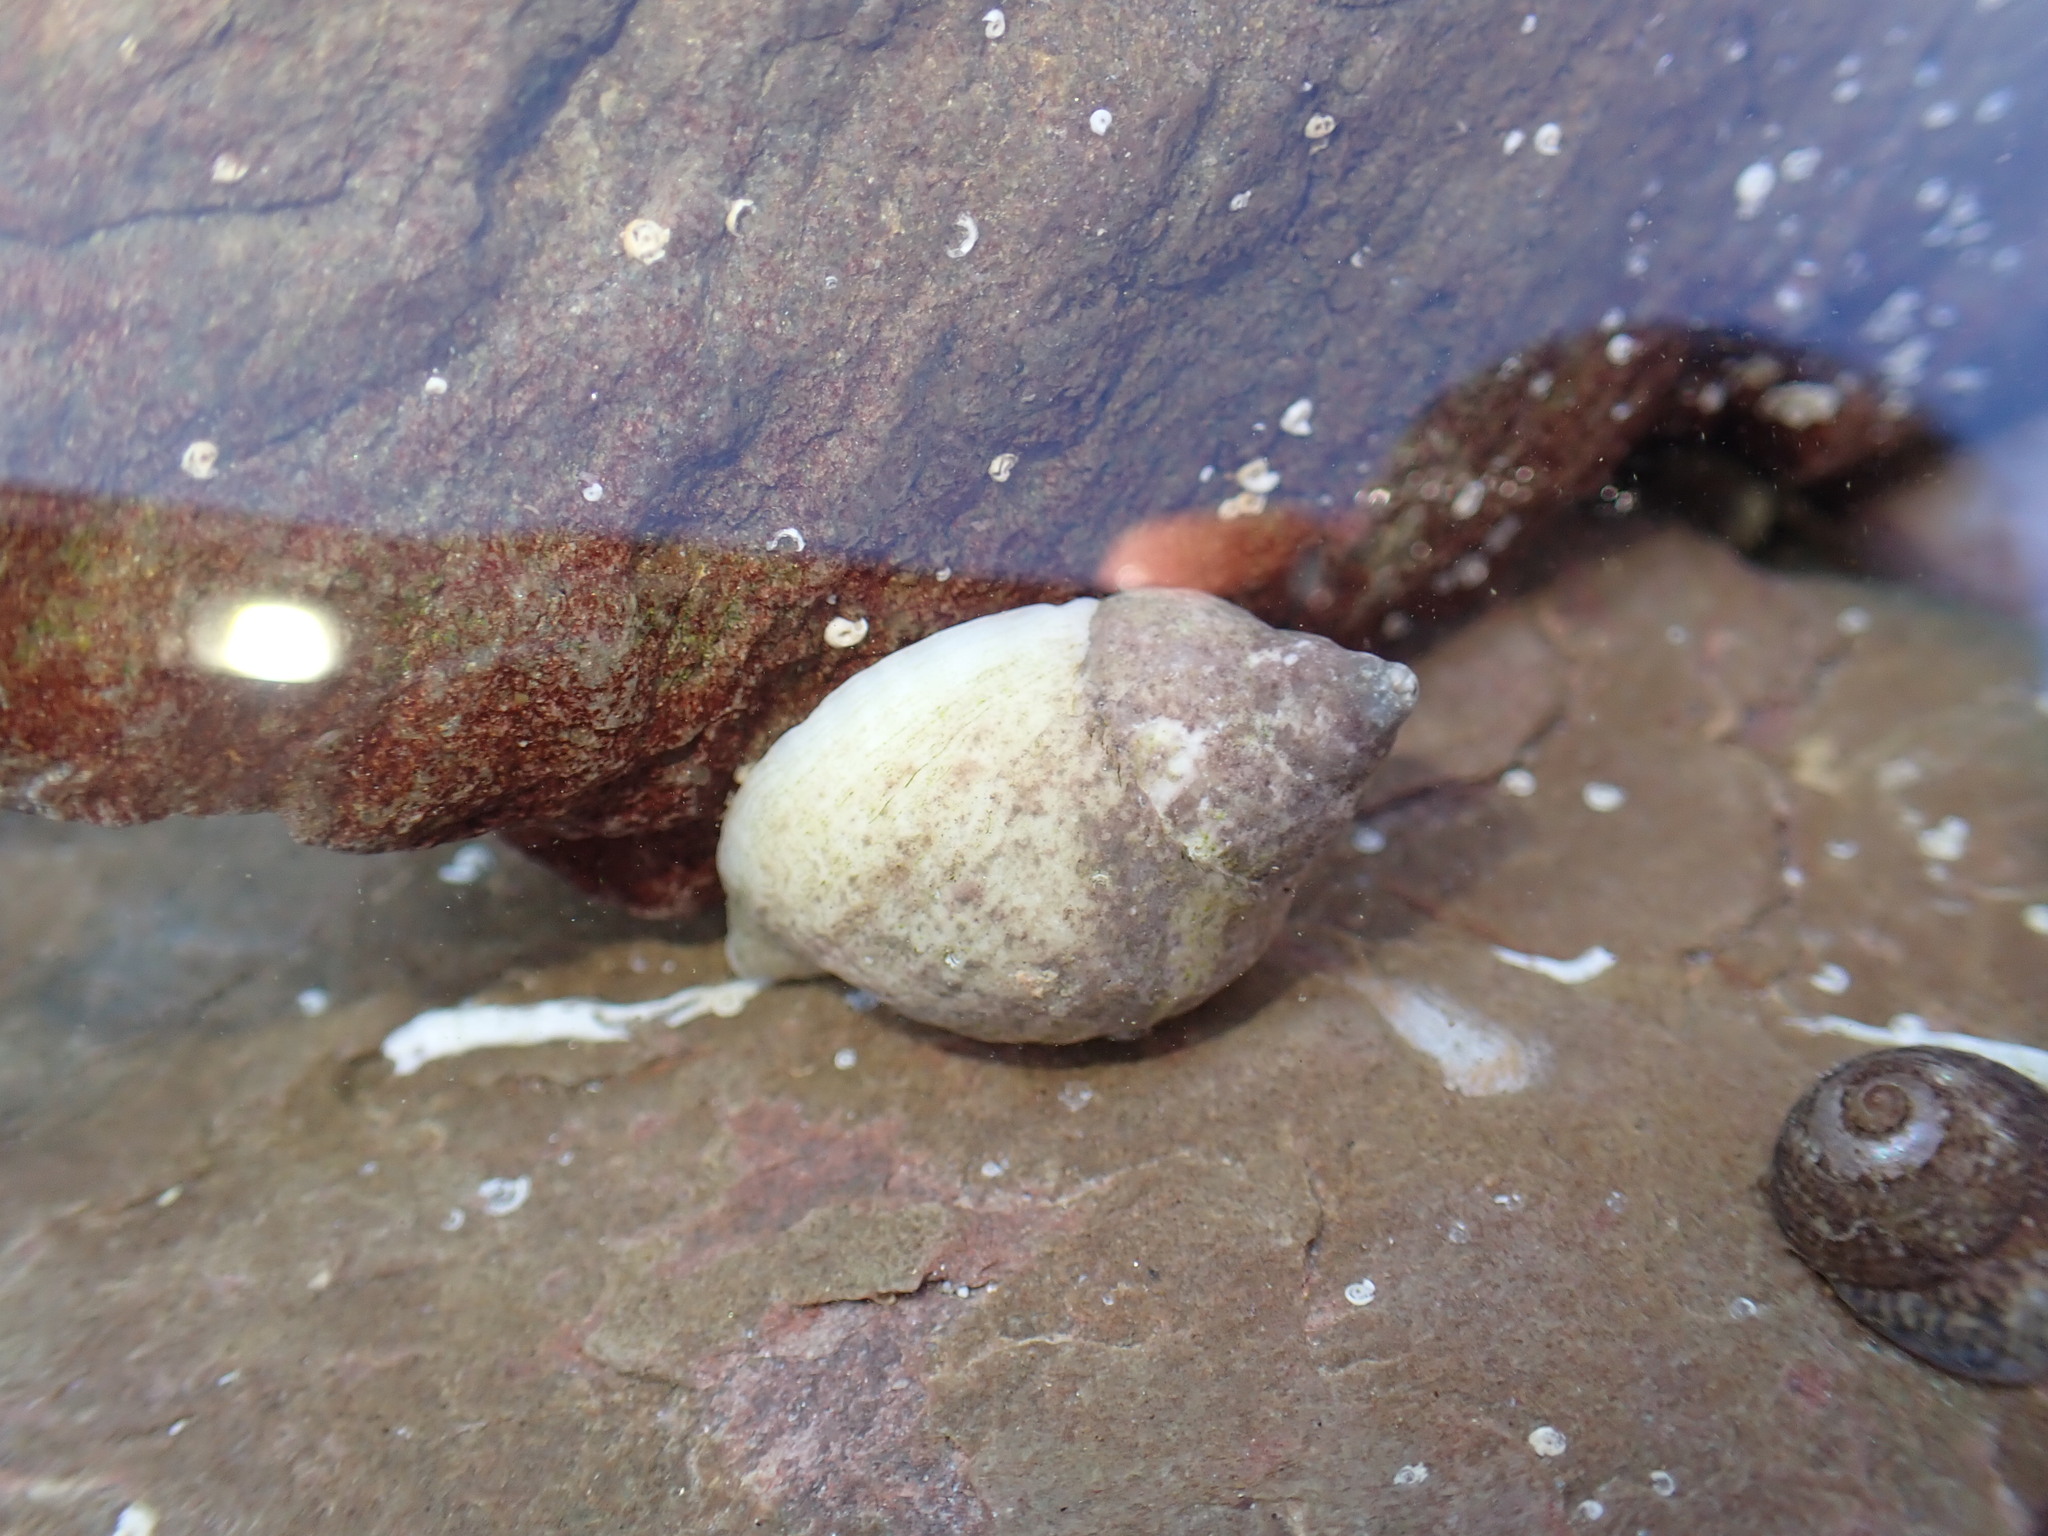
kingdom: Animalia
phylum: Mollusca
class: Gastropoda
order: Neogastropoda
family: Muricidae
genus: Nucella
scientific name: Nucella lapillus
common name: Dog whelk
